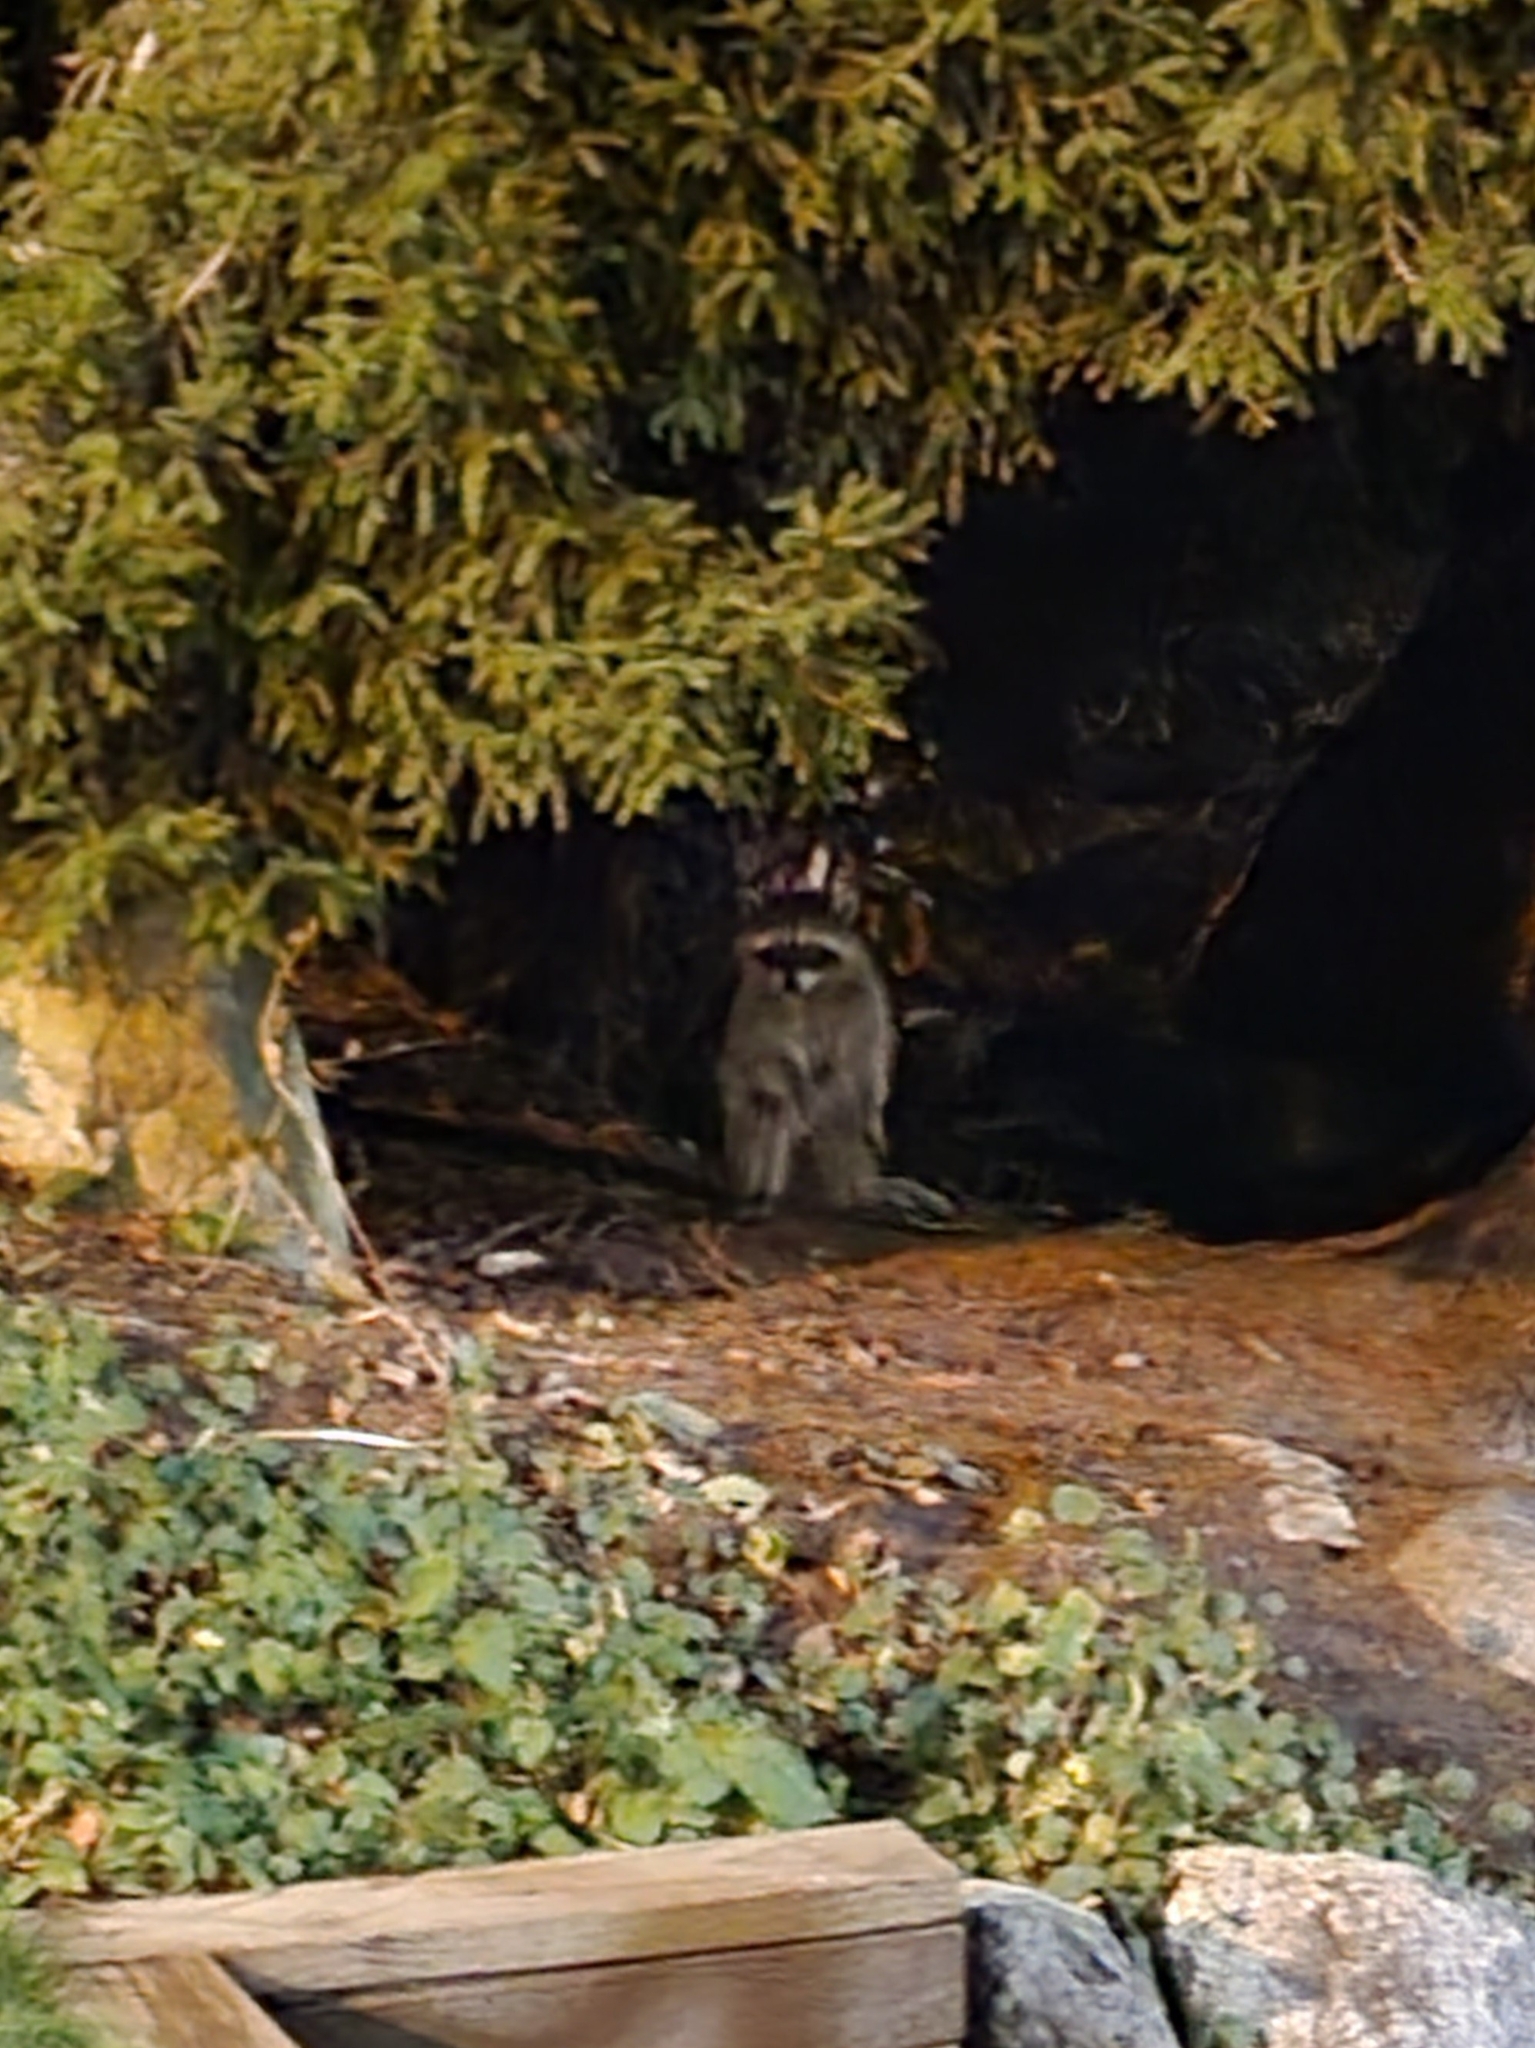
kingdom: Animalia
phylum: Chordata
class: Mammalia
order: Carnivora
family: Procyonidae
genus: Procyon
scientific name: Procyon lotor
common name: Raccoon
